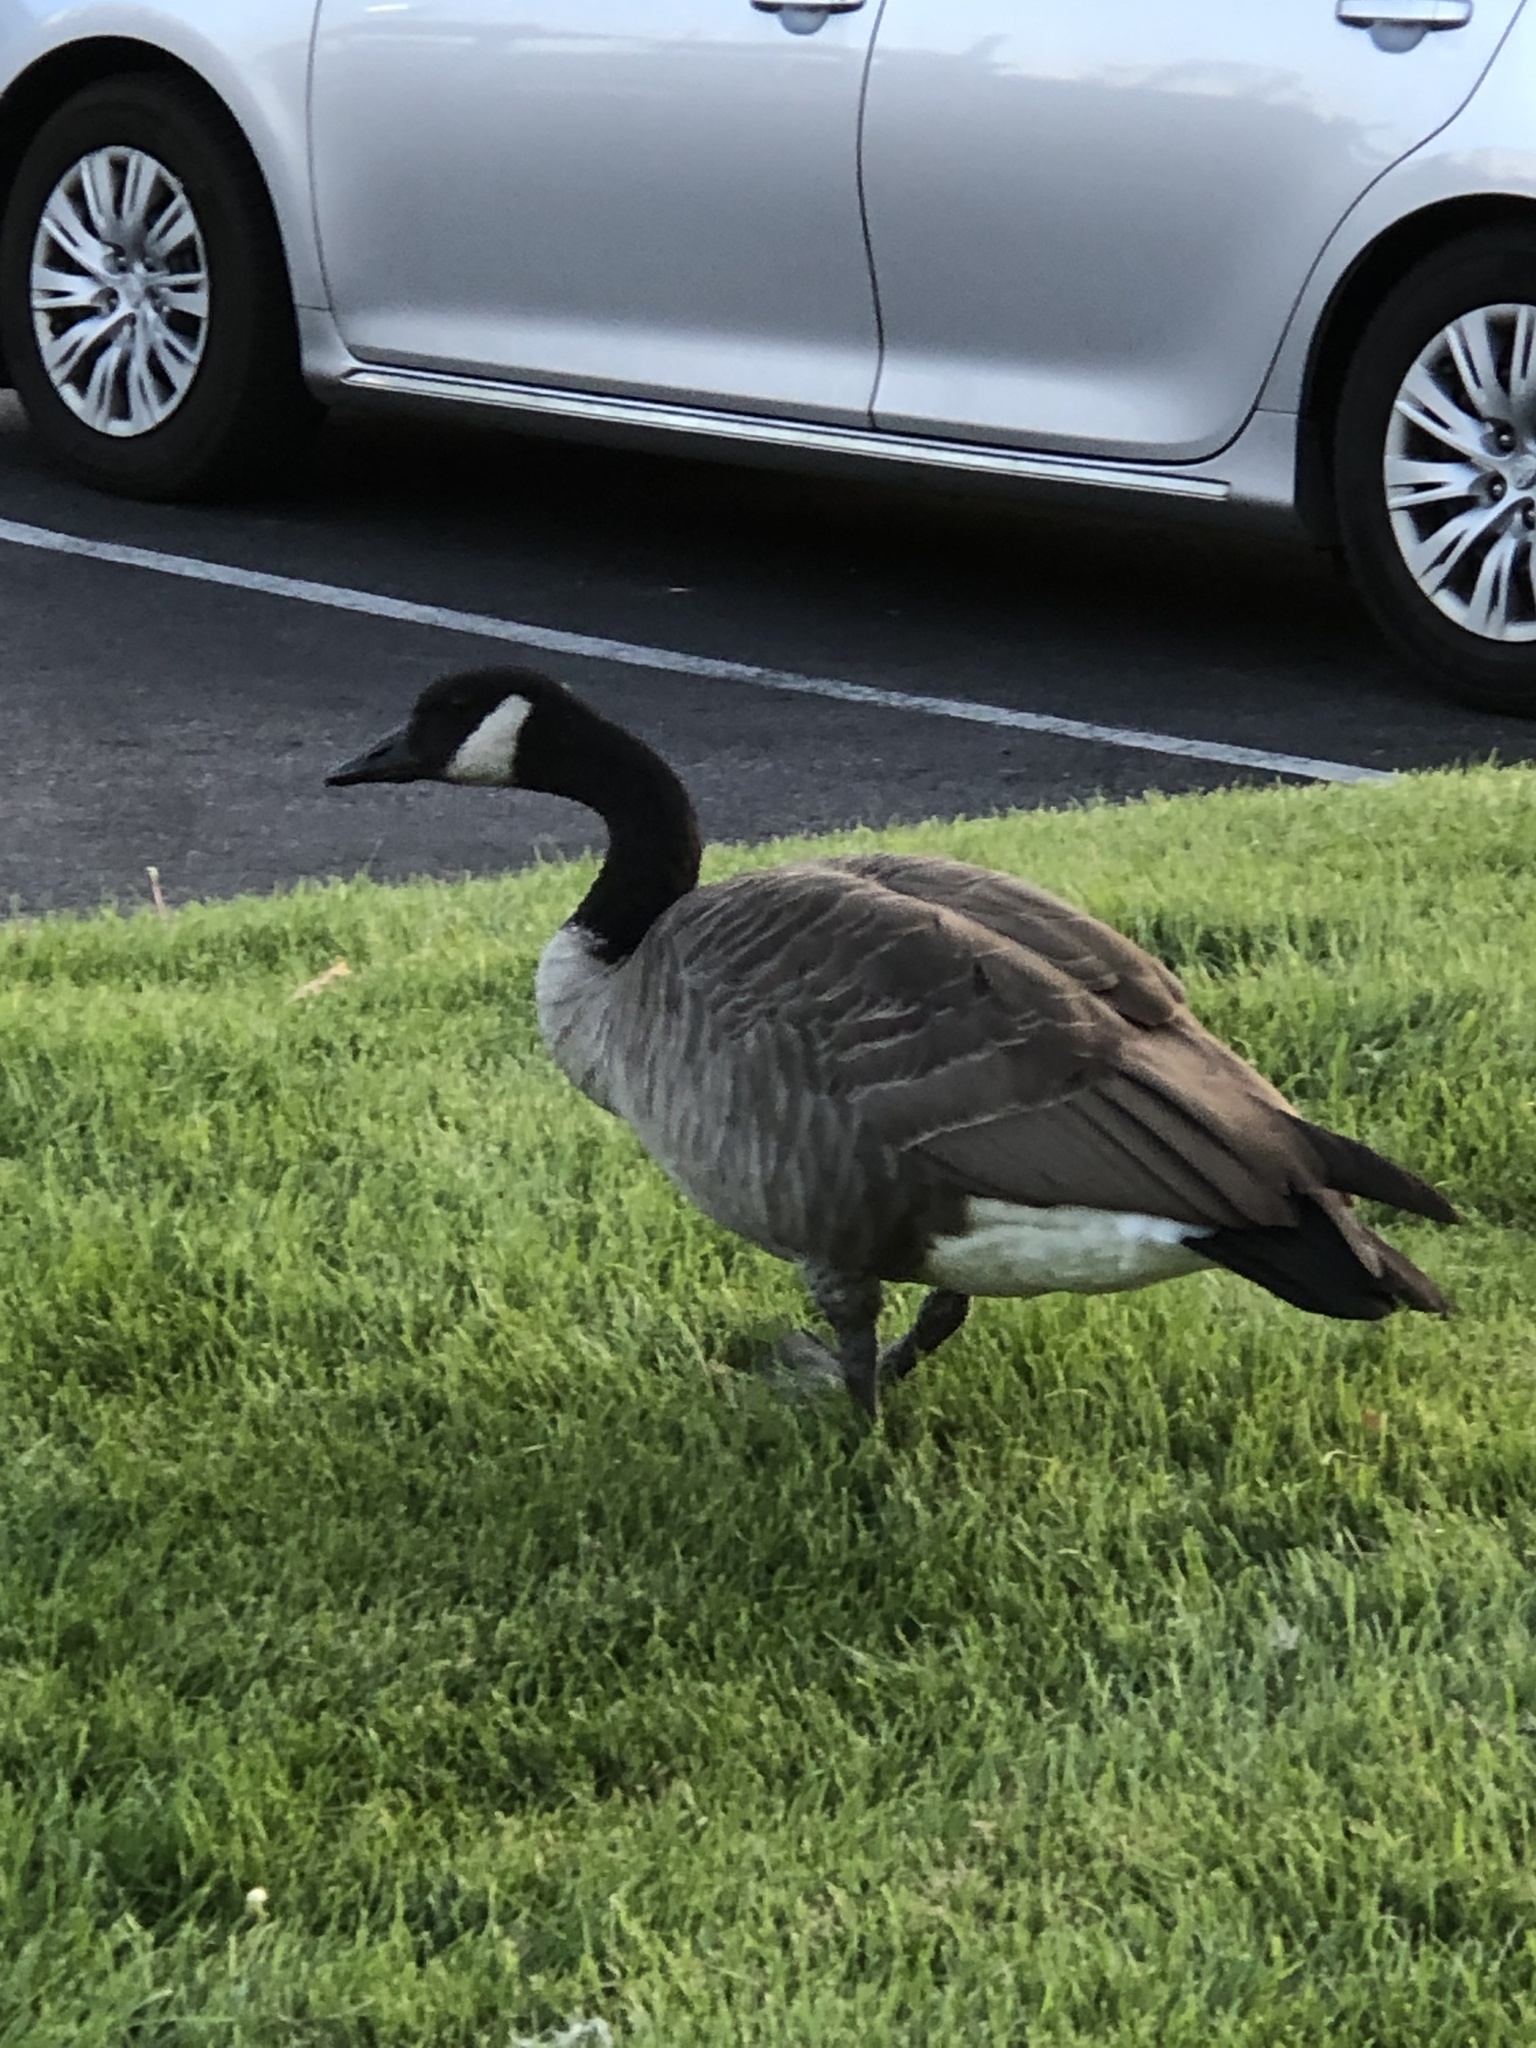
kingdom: Animalia
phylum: Chordata
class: Aves
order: Anseriformes
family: Anatidae
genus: Branta
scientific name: Branta canadensis
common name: Canada goose
